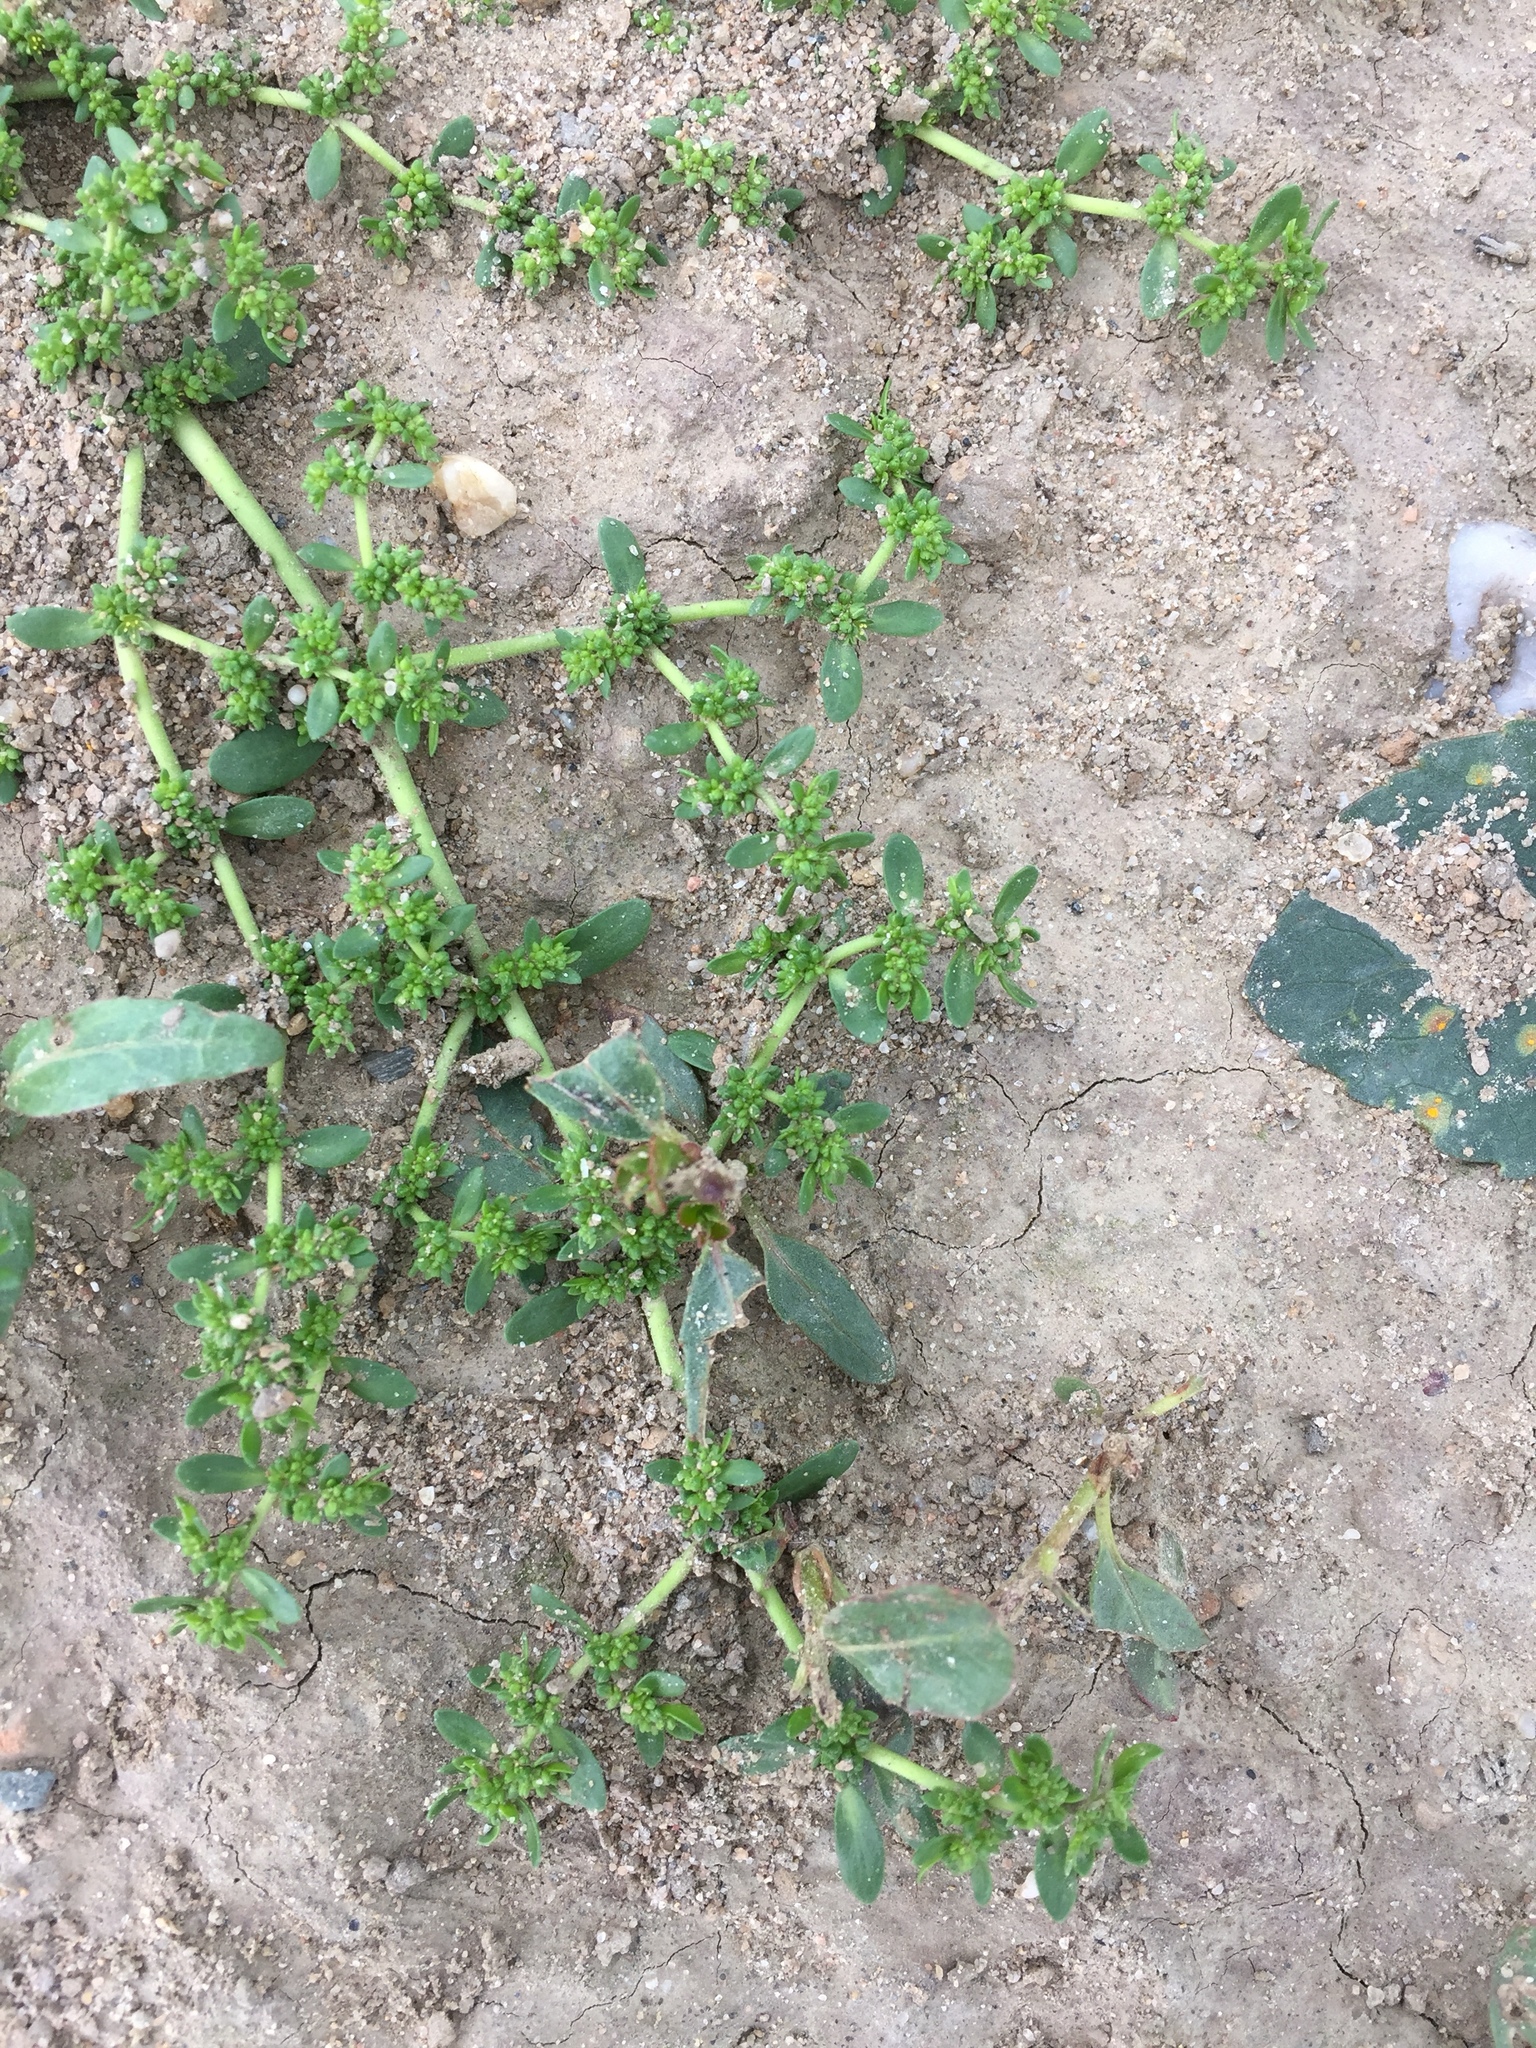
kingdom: Plantae
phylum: Tracheophyta
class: Magnoliopsida
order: Caryophyllales
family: Caryophyllaceae
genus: Herniaria
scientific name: Herniaria glabra
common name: Smooth rupturewort
